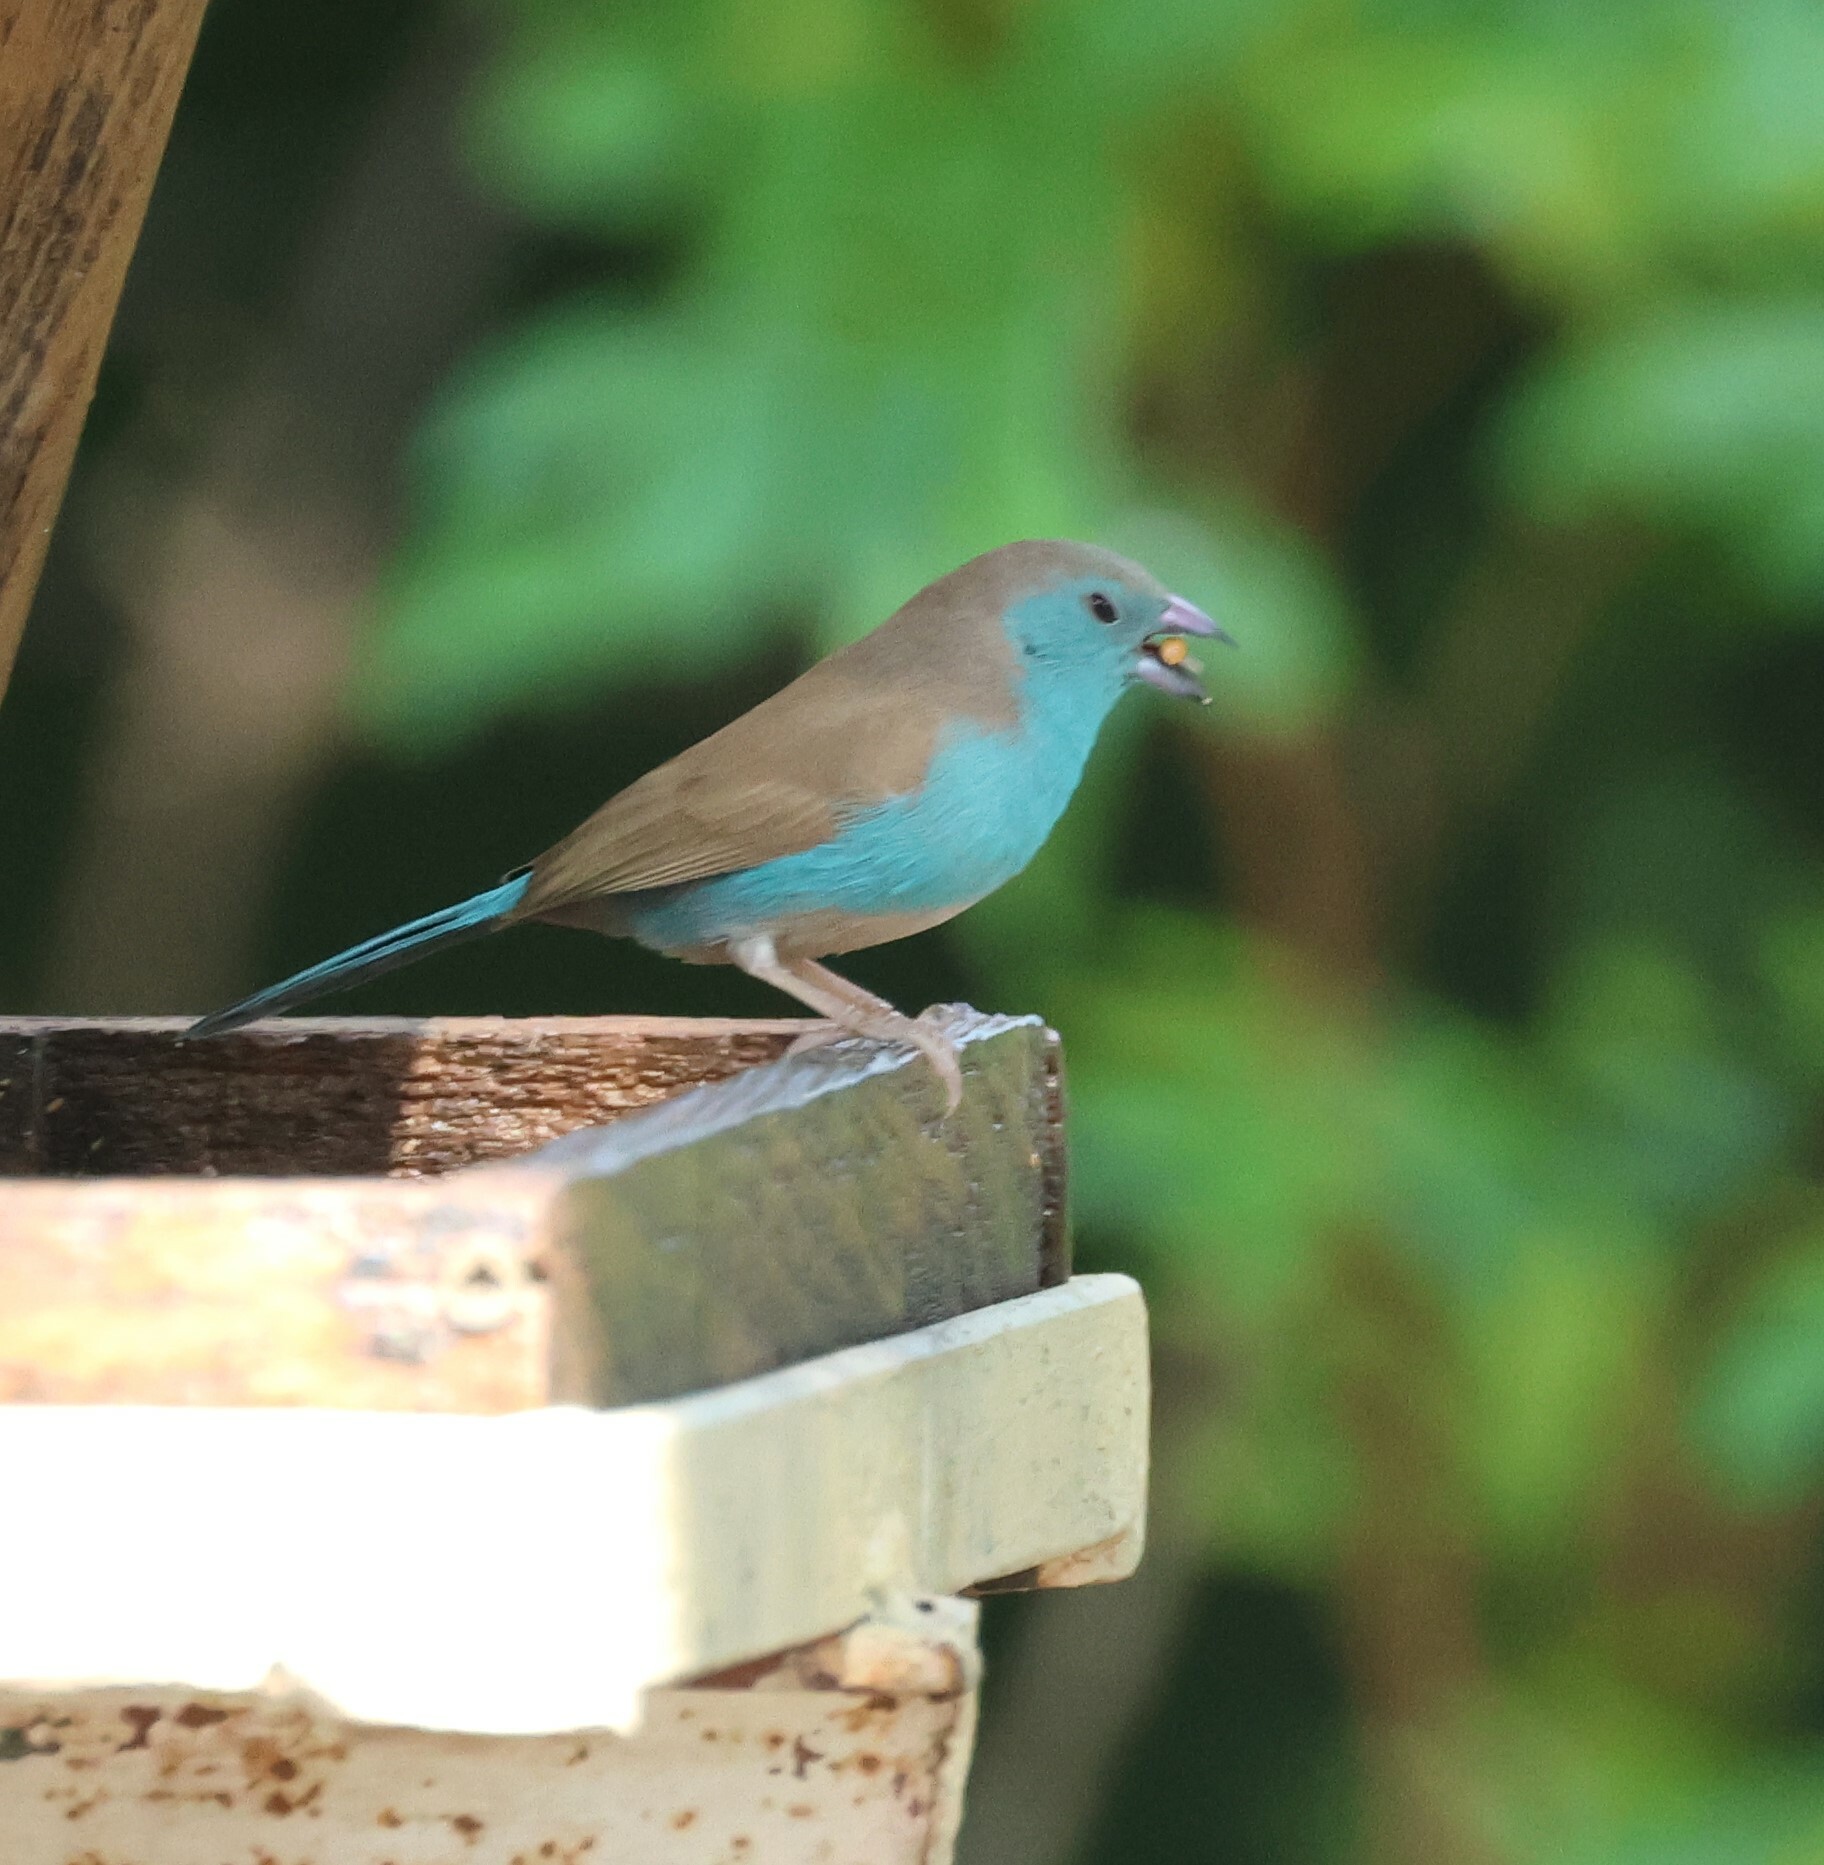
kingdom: Animalia
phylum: Chordata
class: Aves
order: Passeriformes
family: Estrildidae
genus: Uraeginthus
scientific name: Uraeginthus angolensis
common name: Blue waxbill
